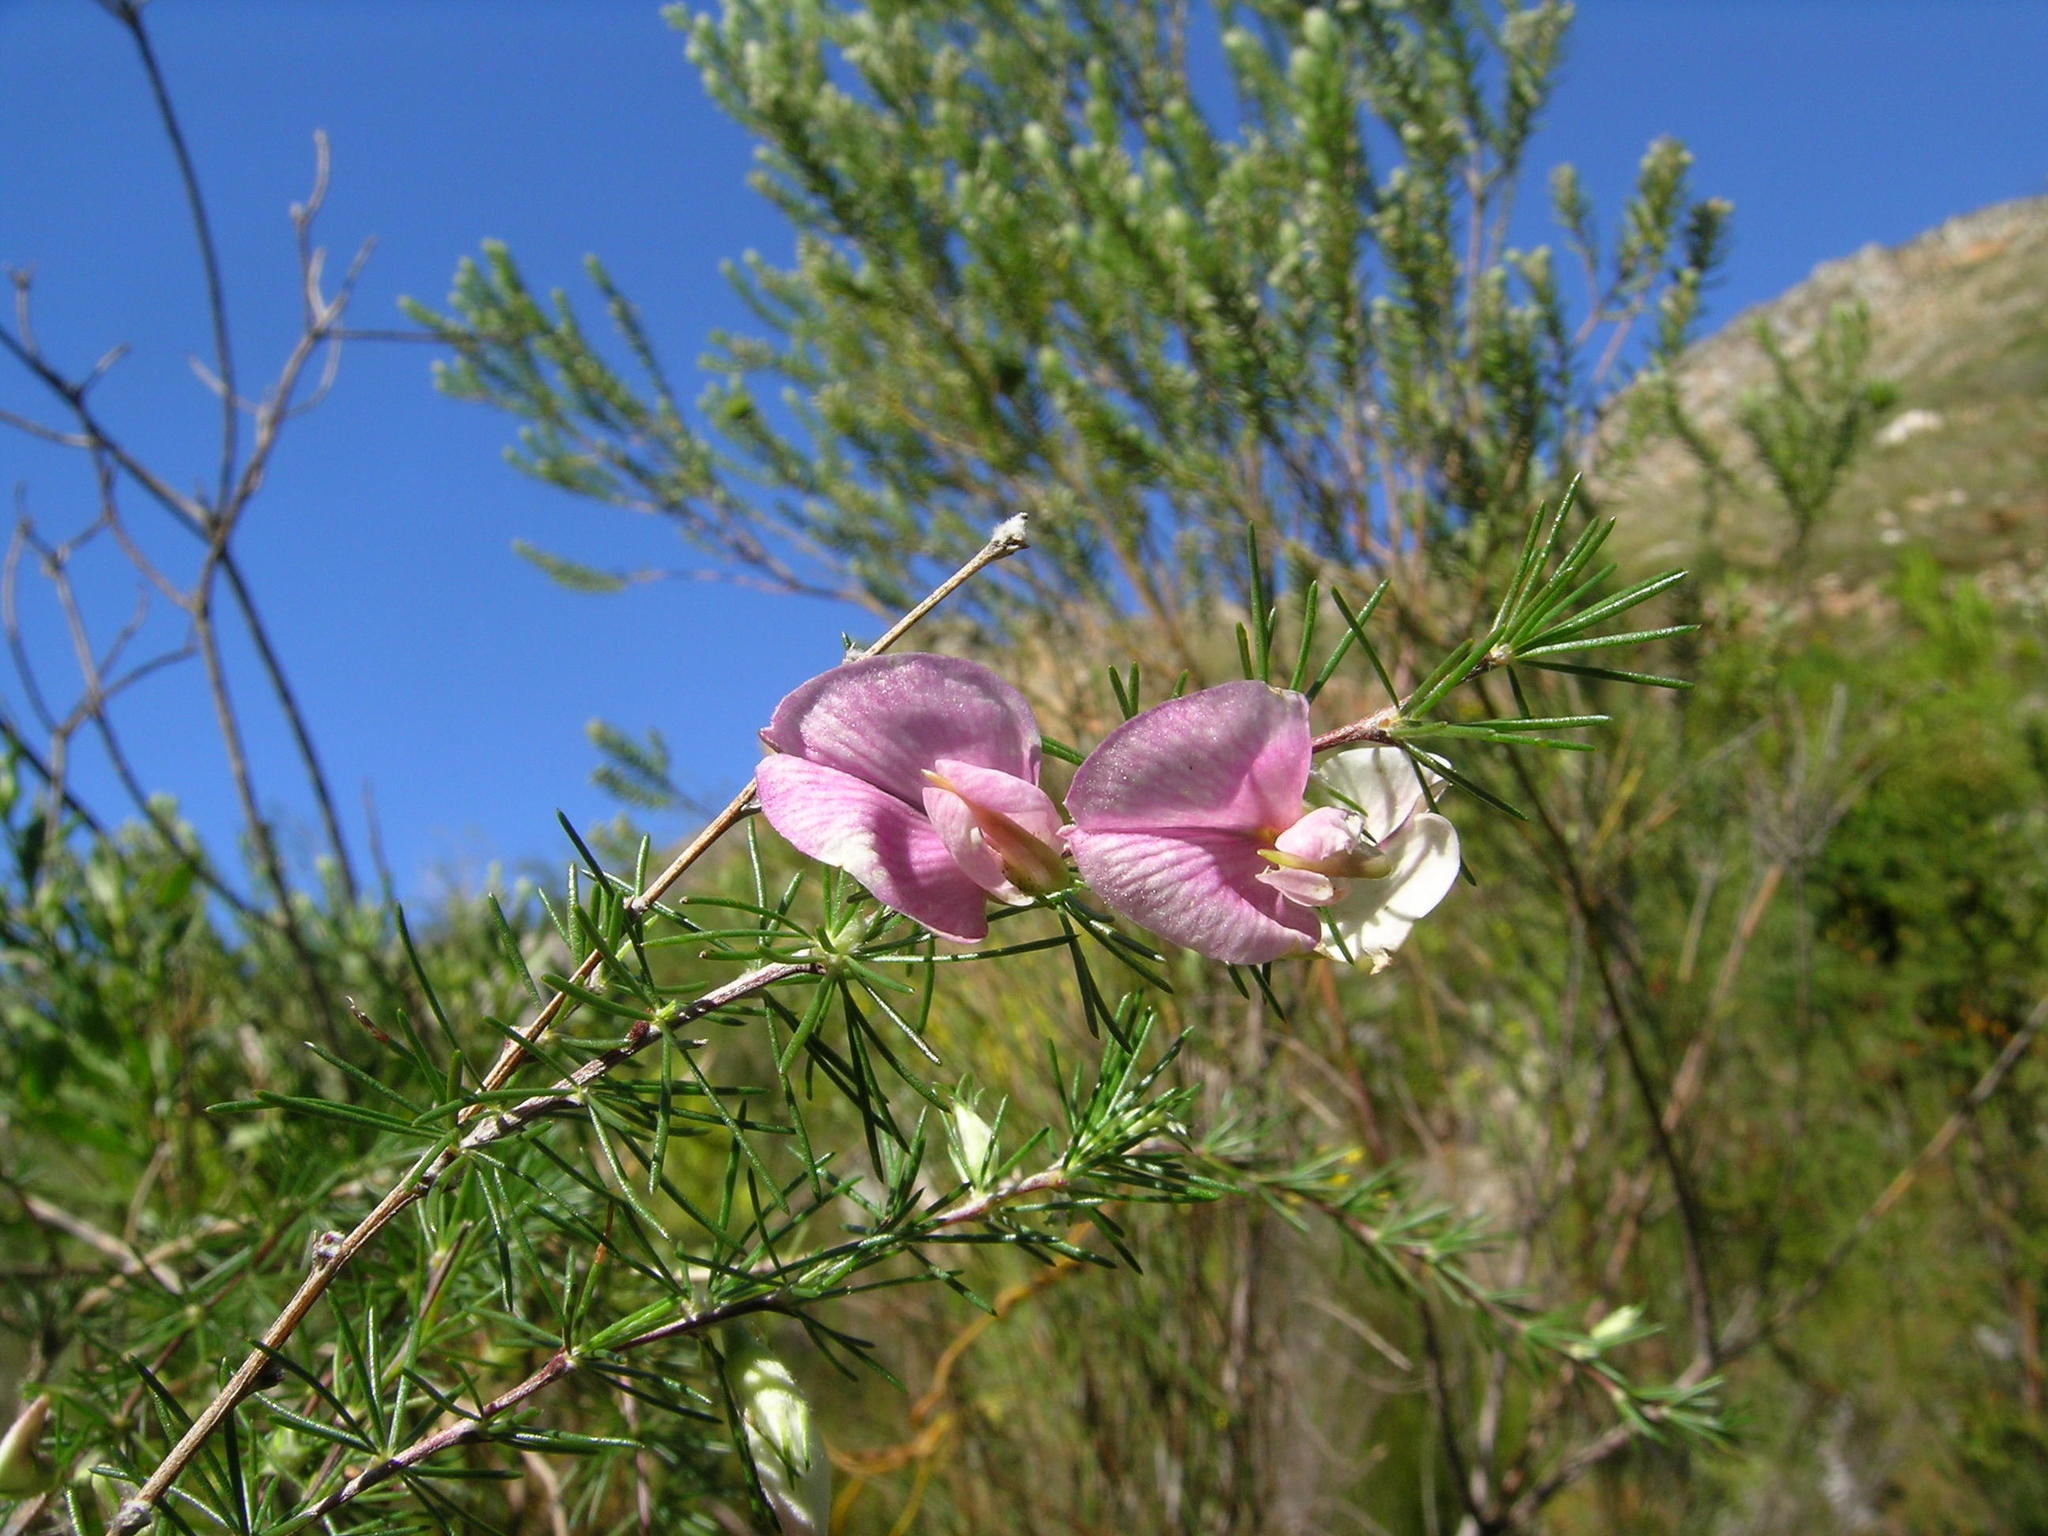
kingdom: Plantae
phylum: Tracheophyta
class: Magnoliopsida
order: Fabales
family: Fabaceae
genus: Aspalathus
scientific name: Aspalathus willdenowiana
